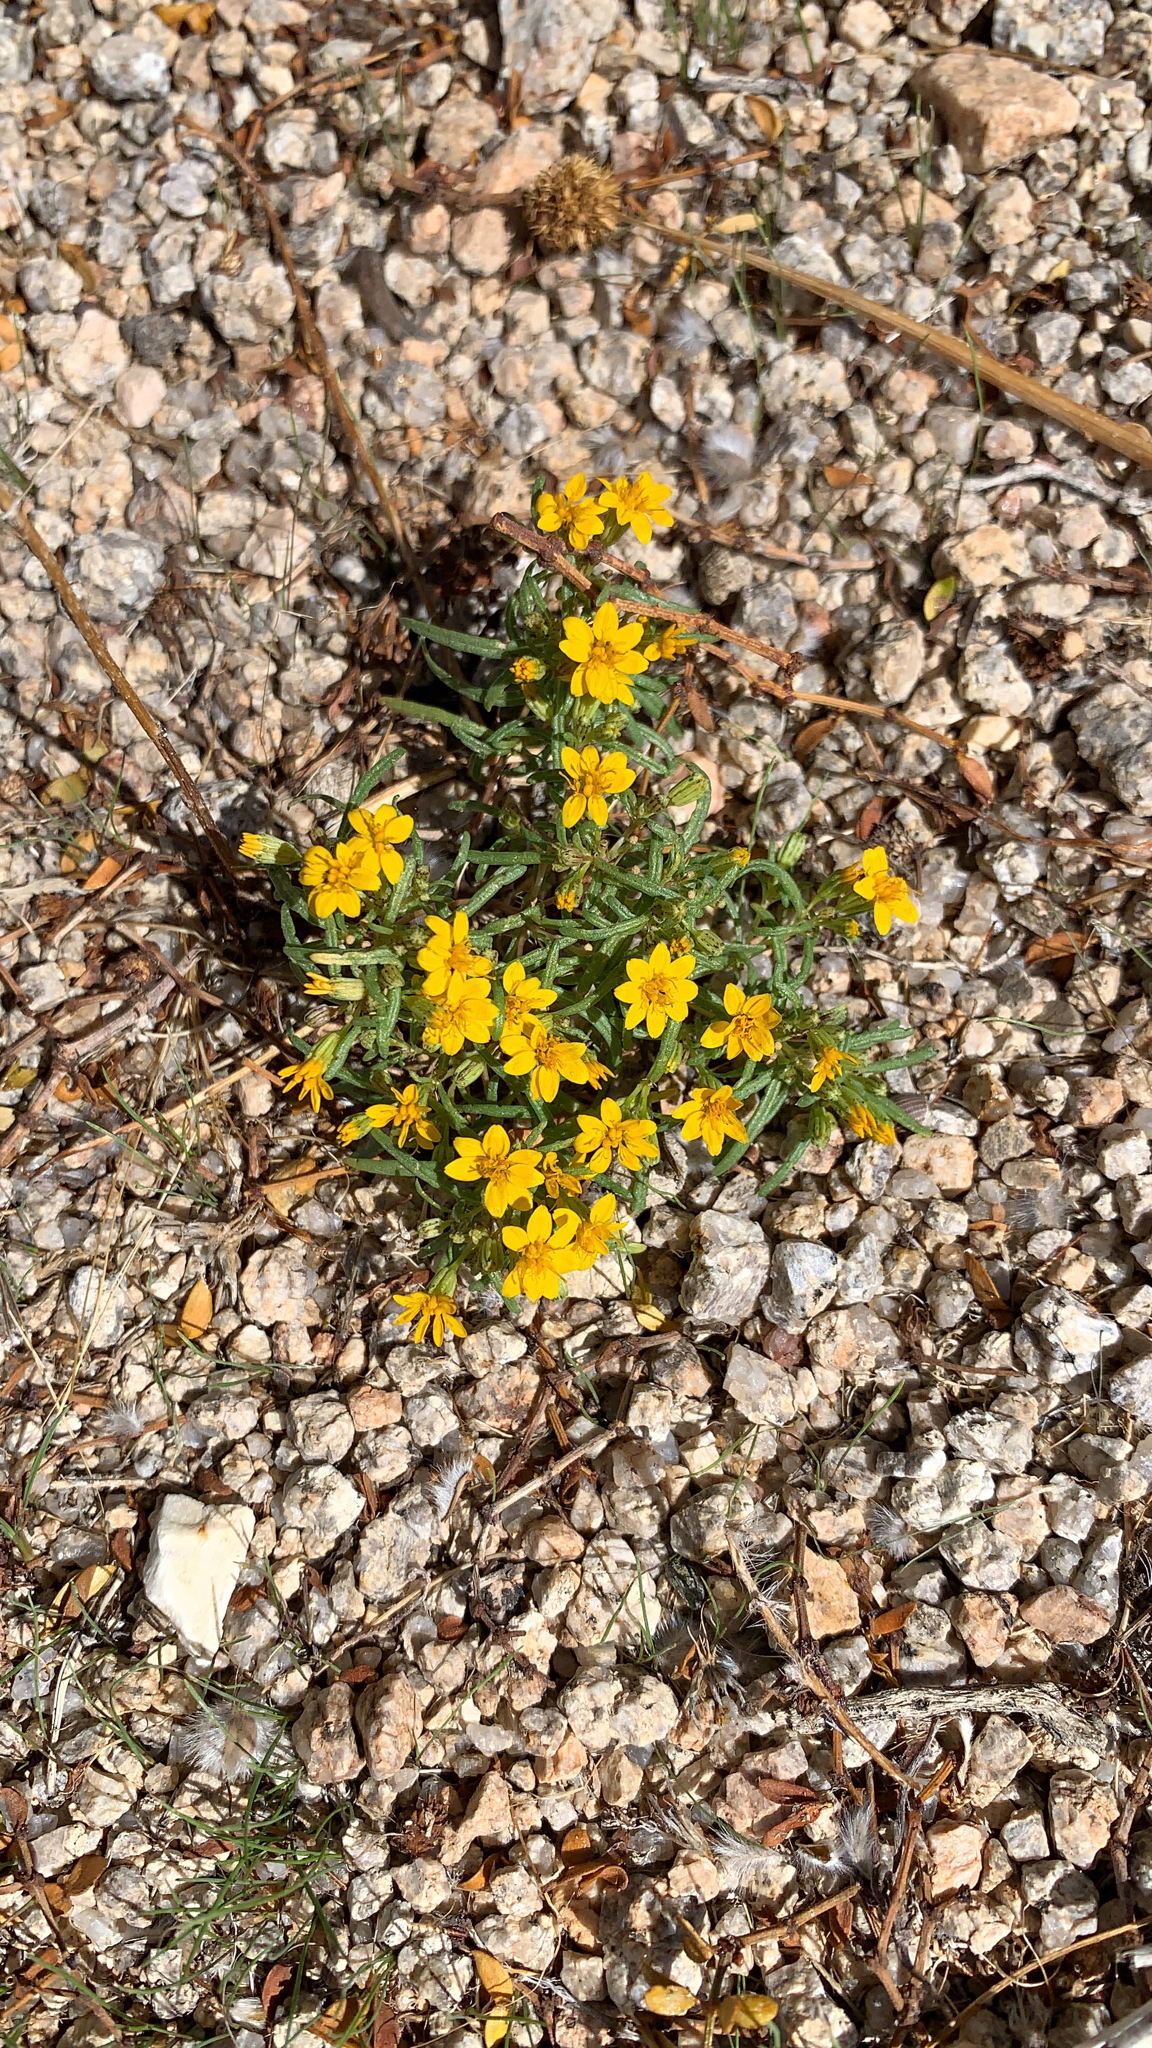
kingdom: Plantae
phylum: Tracheophyta
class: Magnoliopsida
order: Asterales
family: Asteraceae
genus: Pectis
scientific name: Pectis papposa
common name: Many-bristle chinchweed
